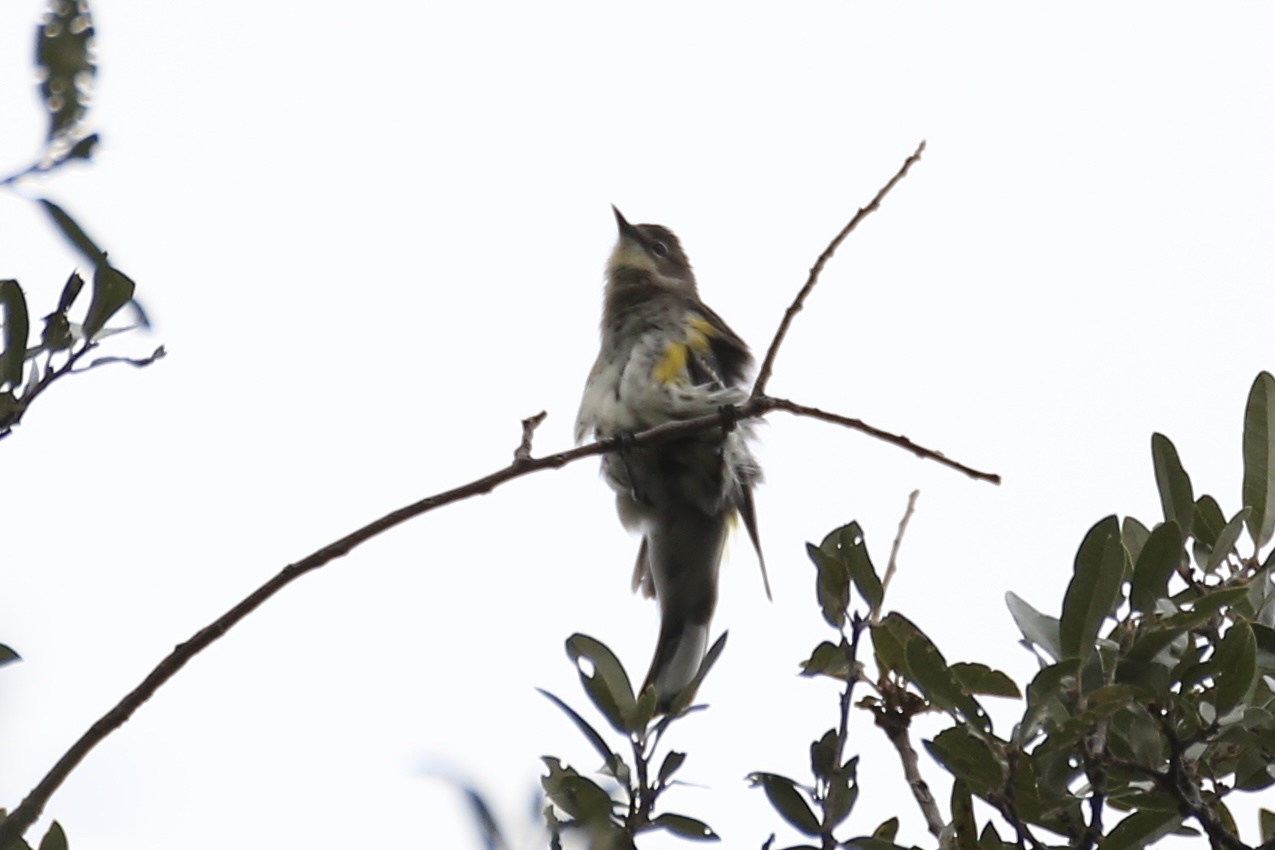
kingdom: Animalia
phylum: Chordata
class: Aves
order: Passeriformes
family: Parulidae
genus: Setophaga
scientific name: Setophaga coronata
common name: Myrtle warbler
